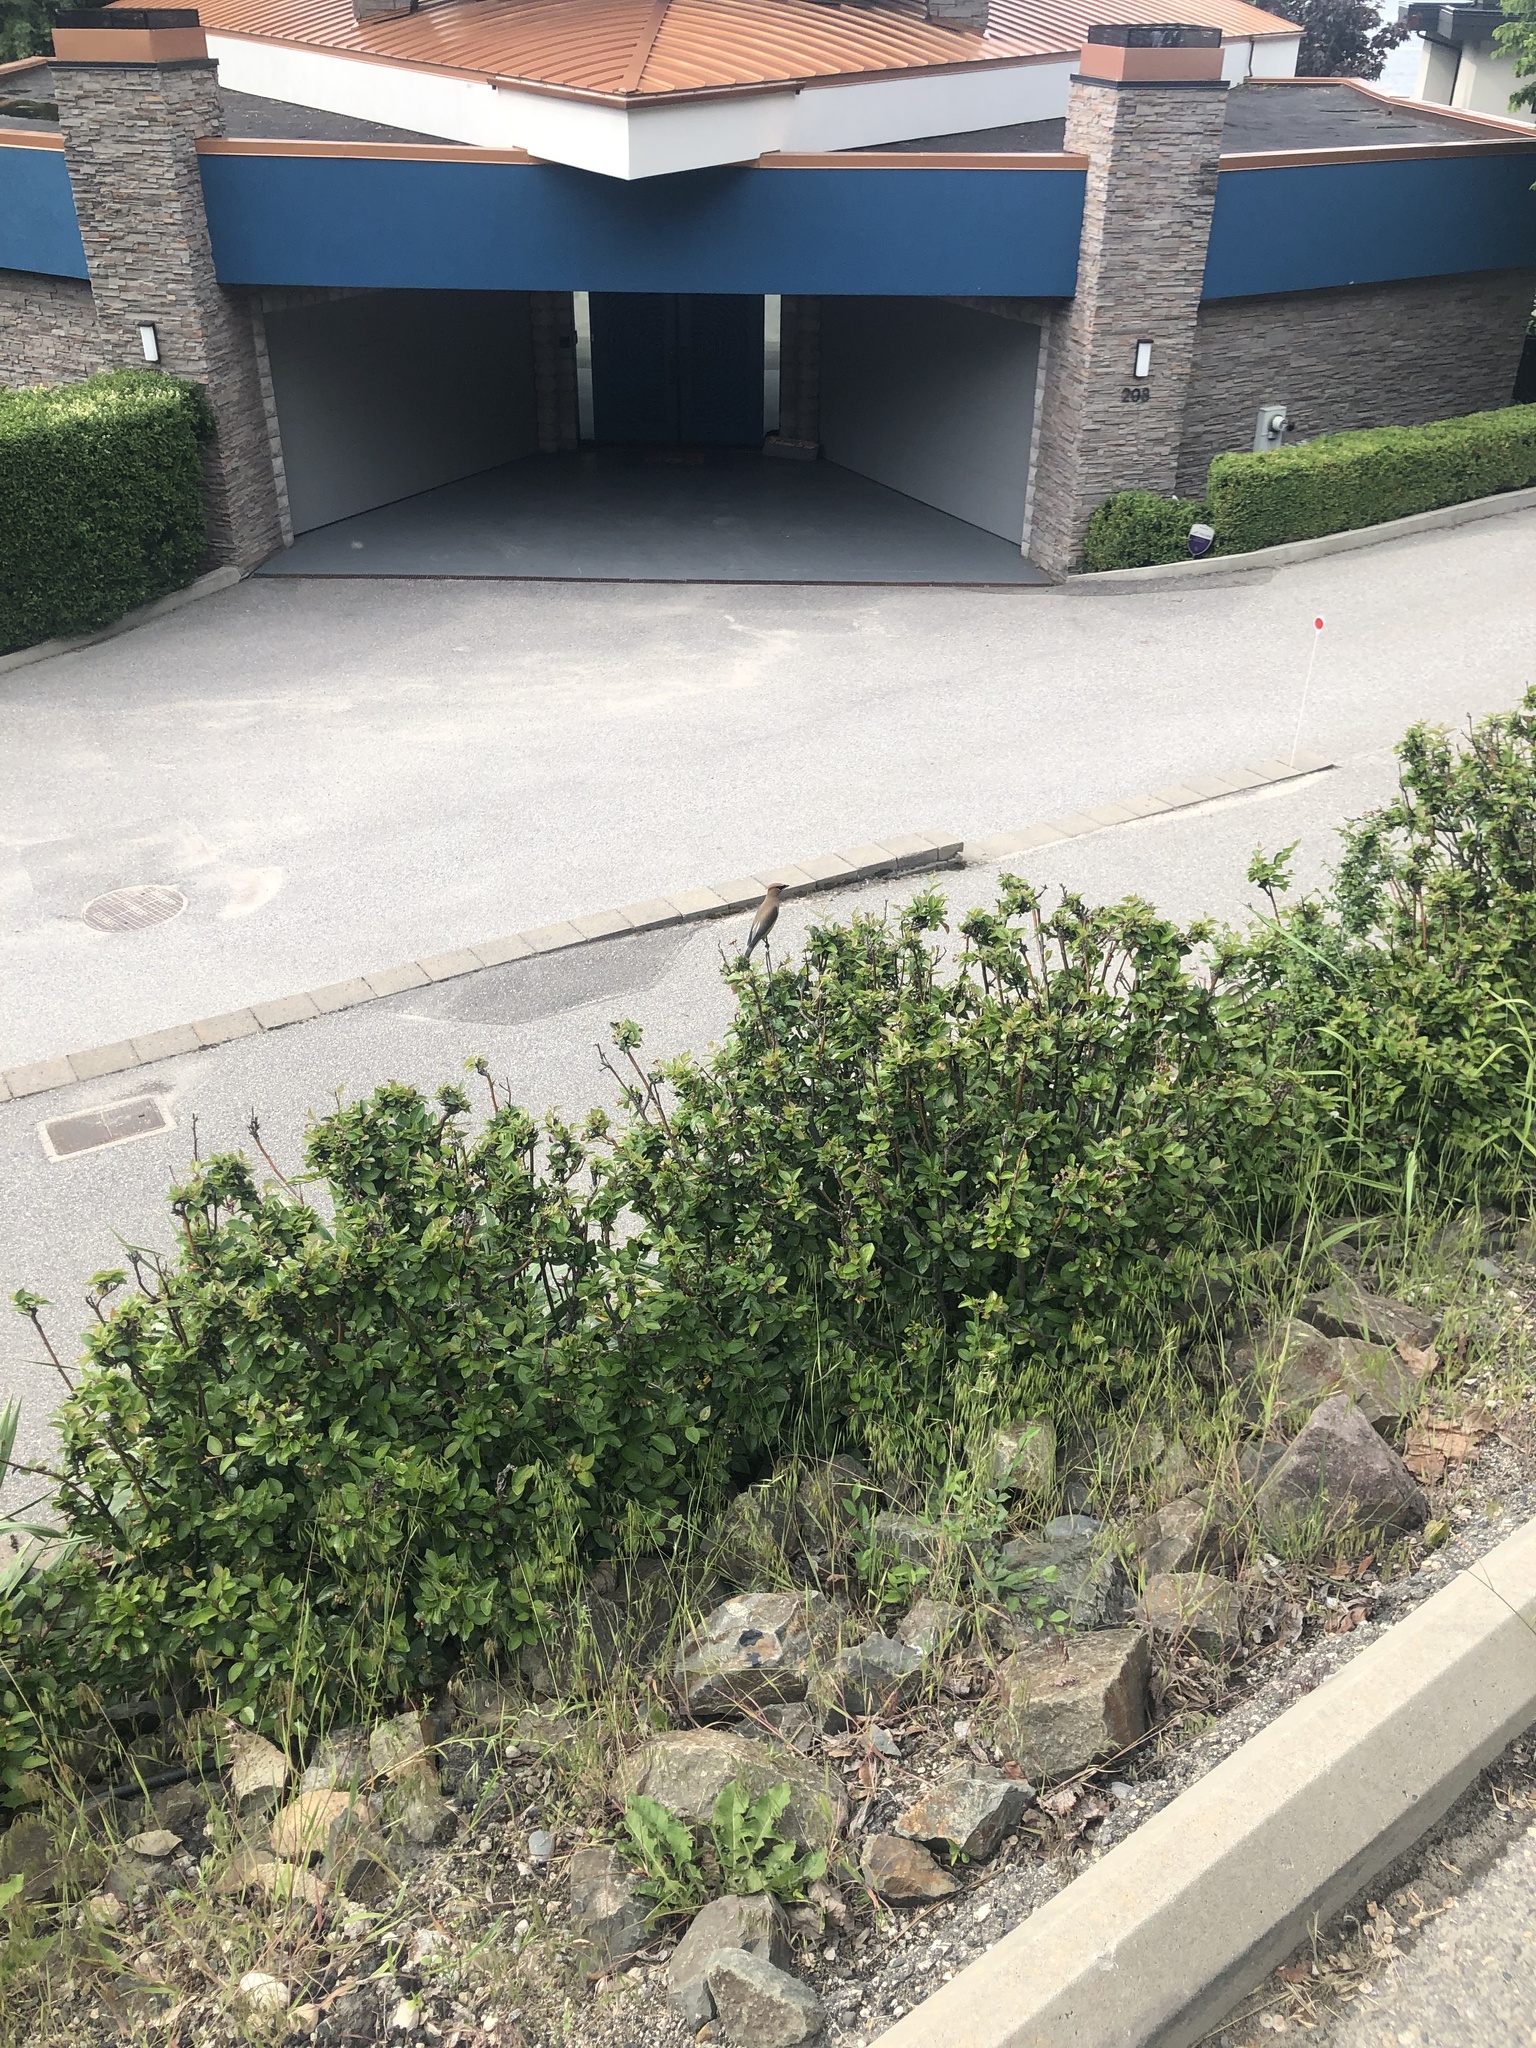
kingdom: Animalia
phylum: Chordata
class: Aves
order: Passeriformes
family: Bombycillidae
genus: Bombycilla
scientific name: Bombycilla cedrorum
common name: Cedar waxwing
